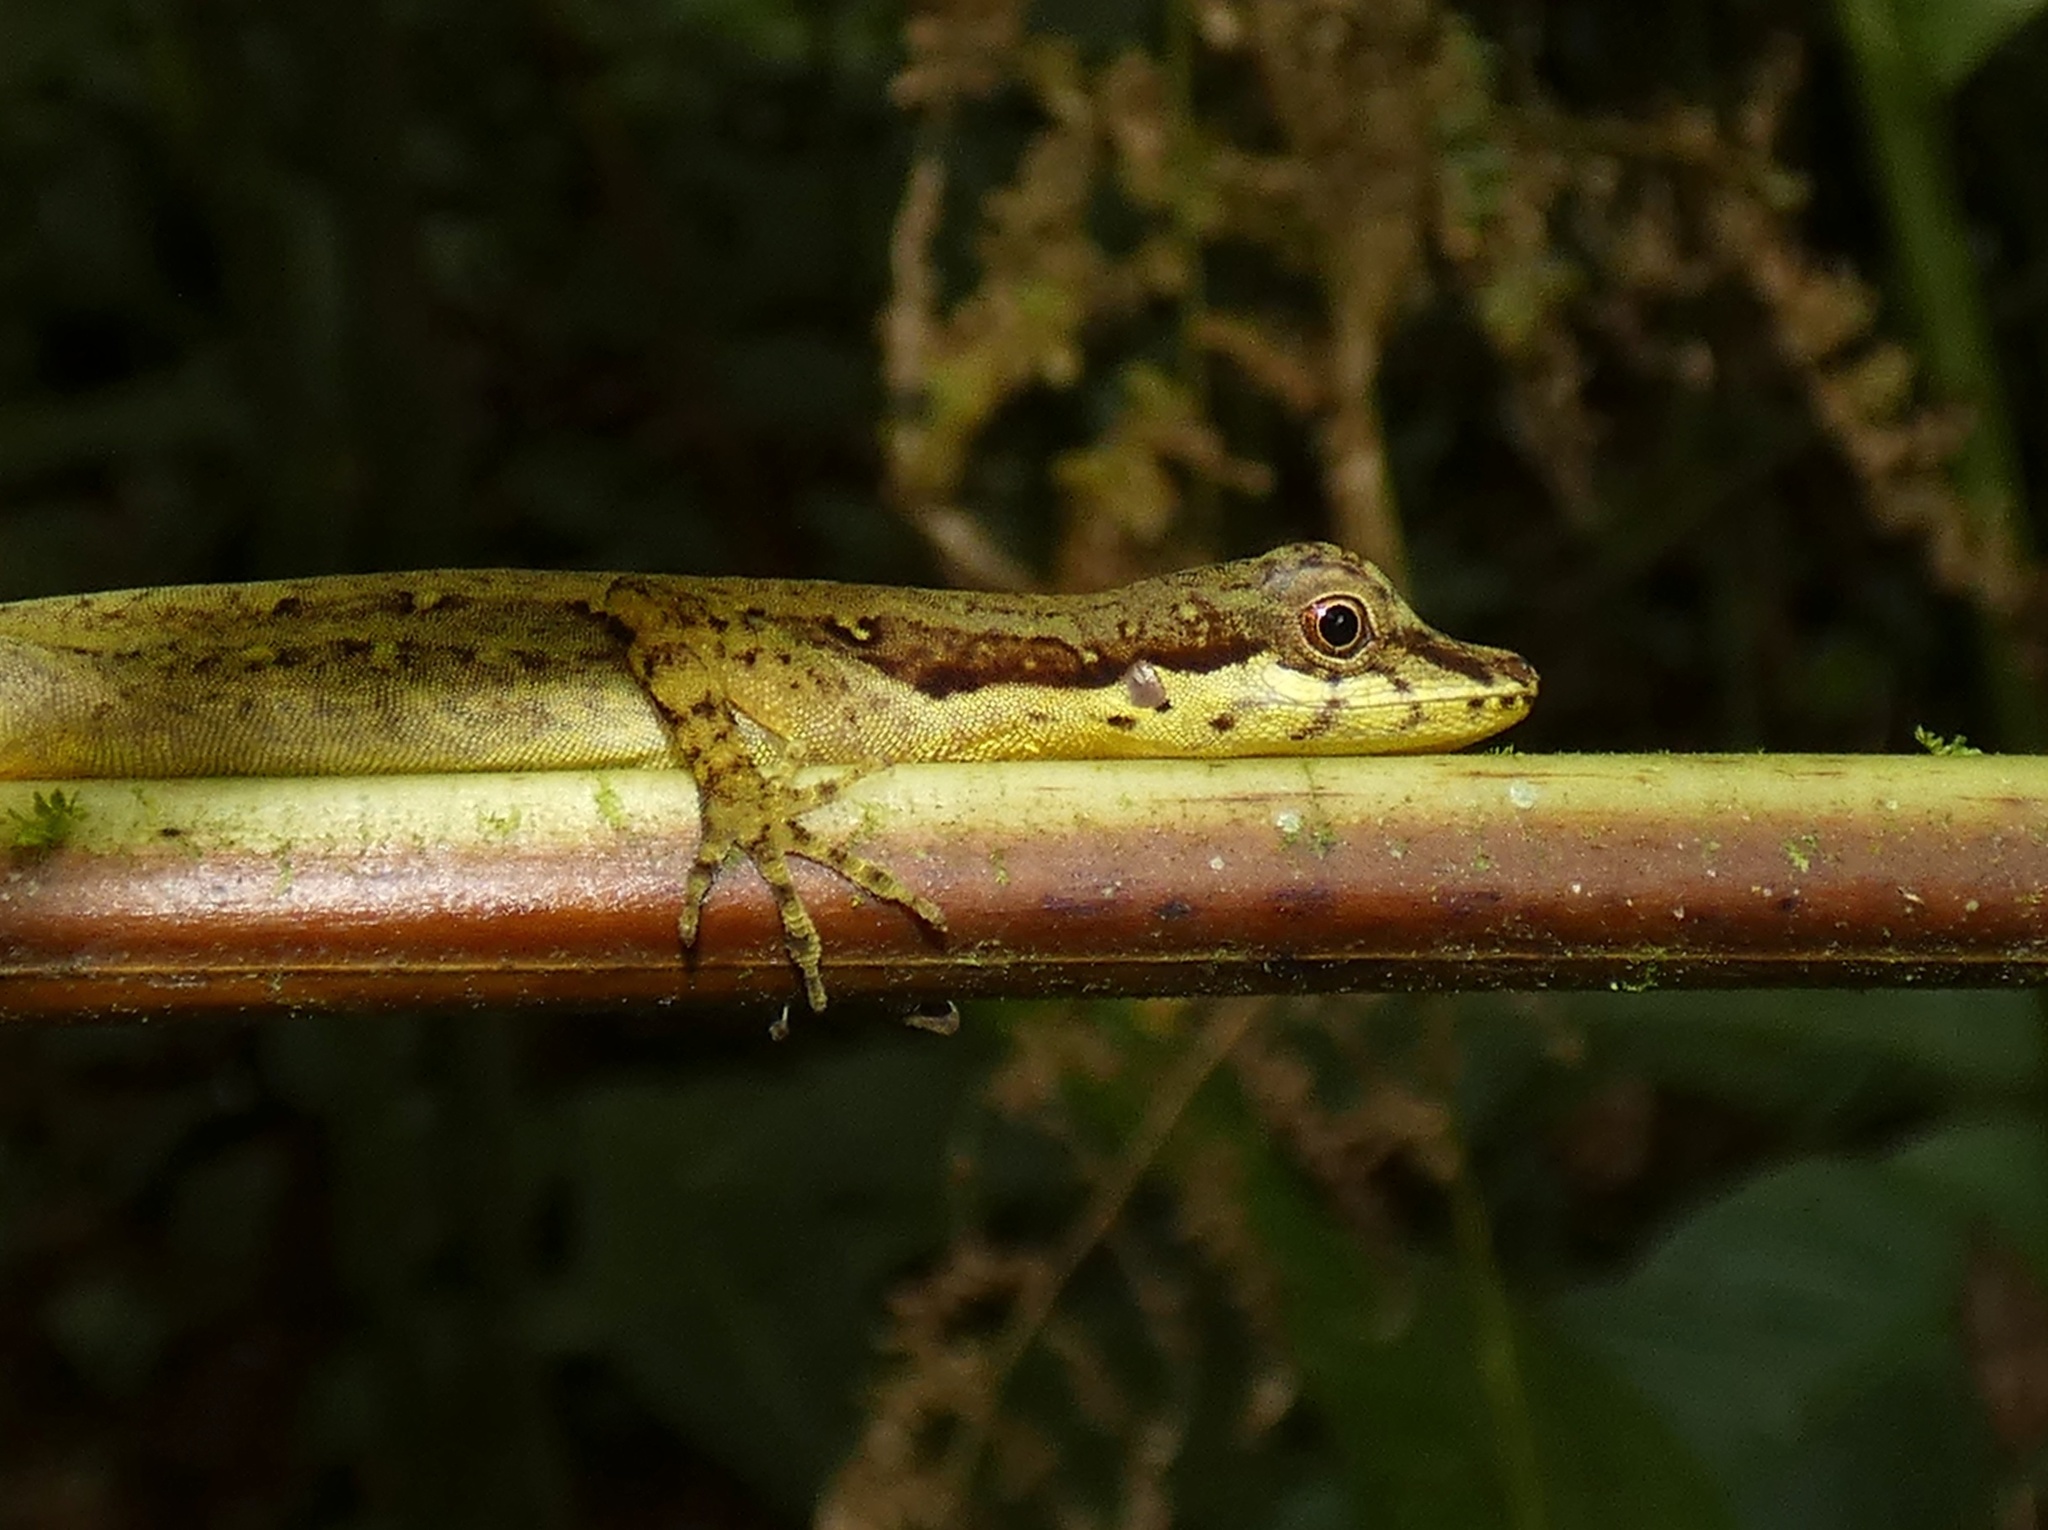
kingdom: Animalia
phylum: Chordata
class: Squamata
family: Dactyloidae
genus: Anolis
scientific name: Anolis limifrons
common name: Border anole
